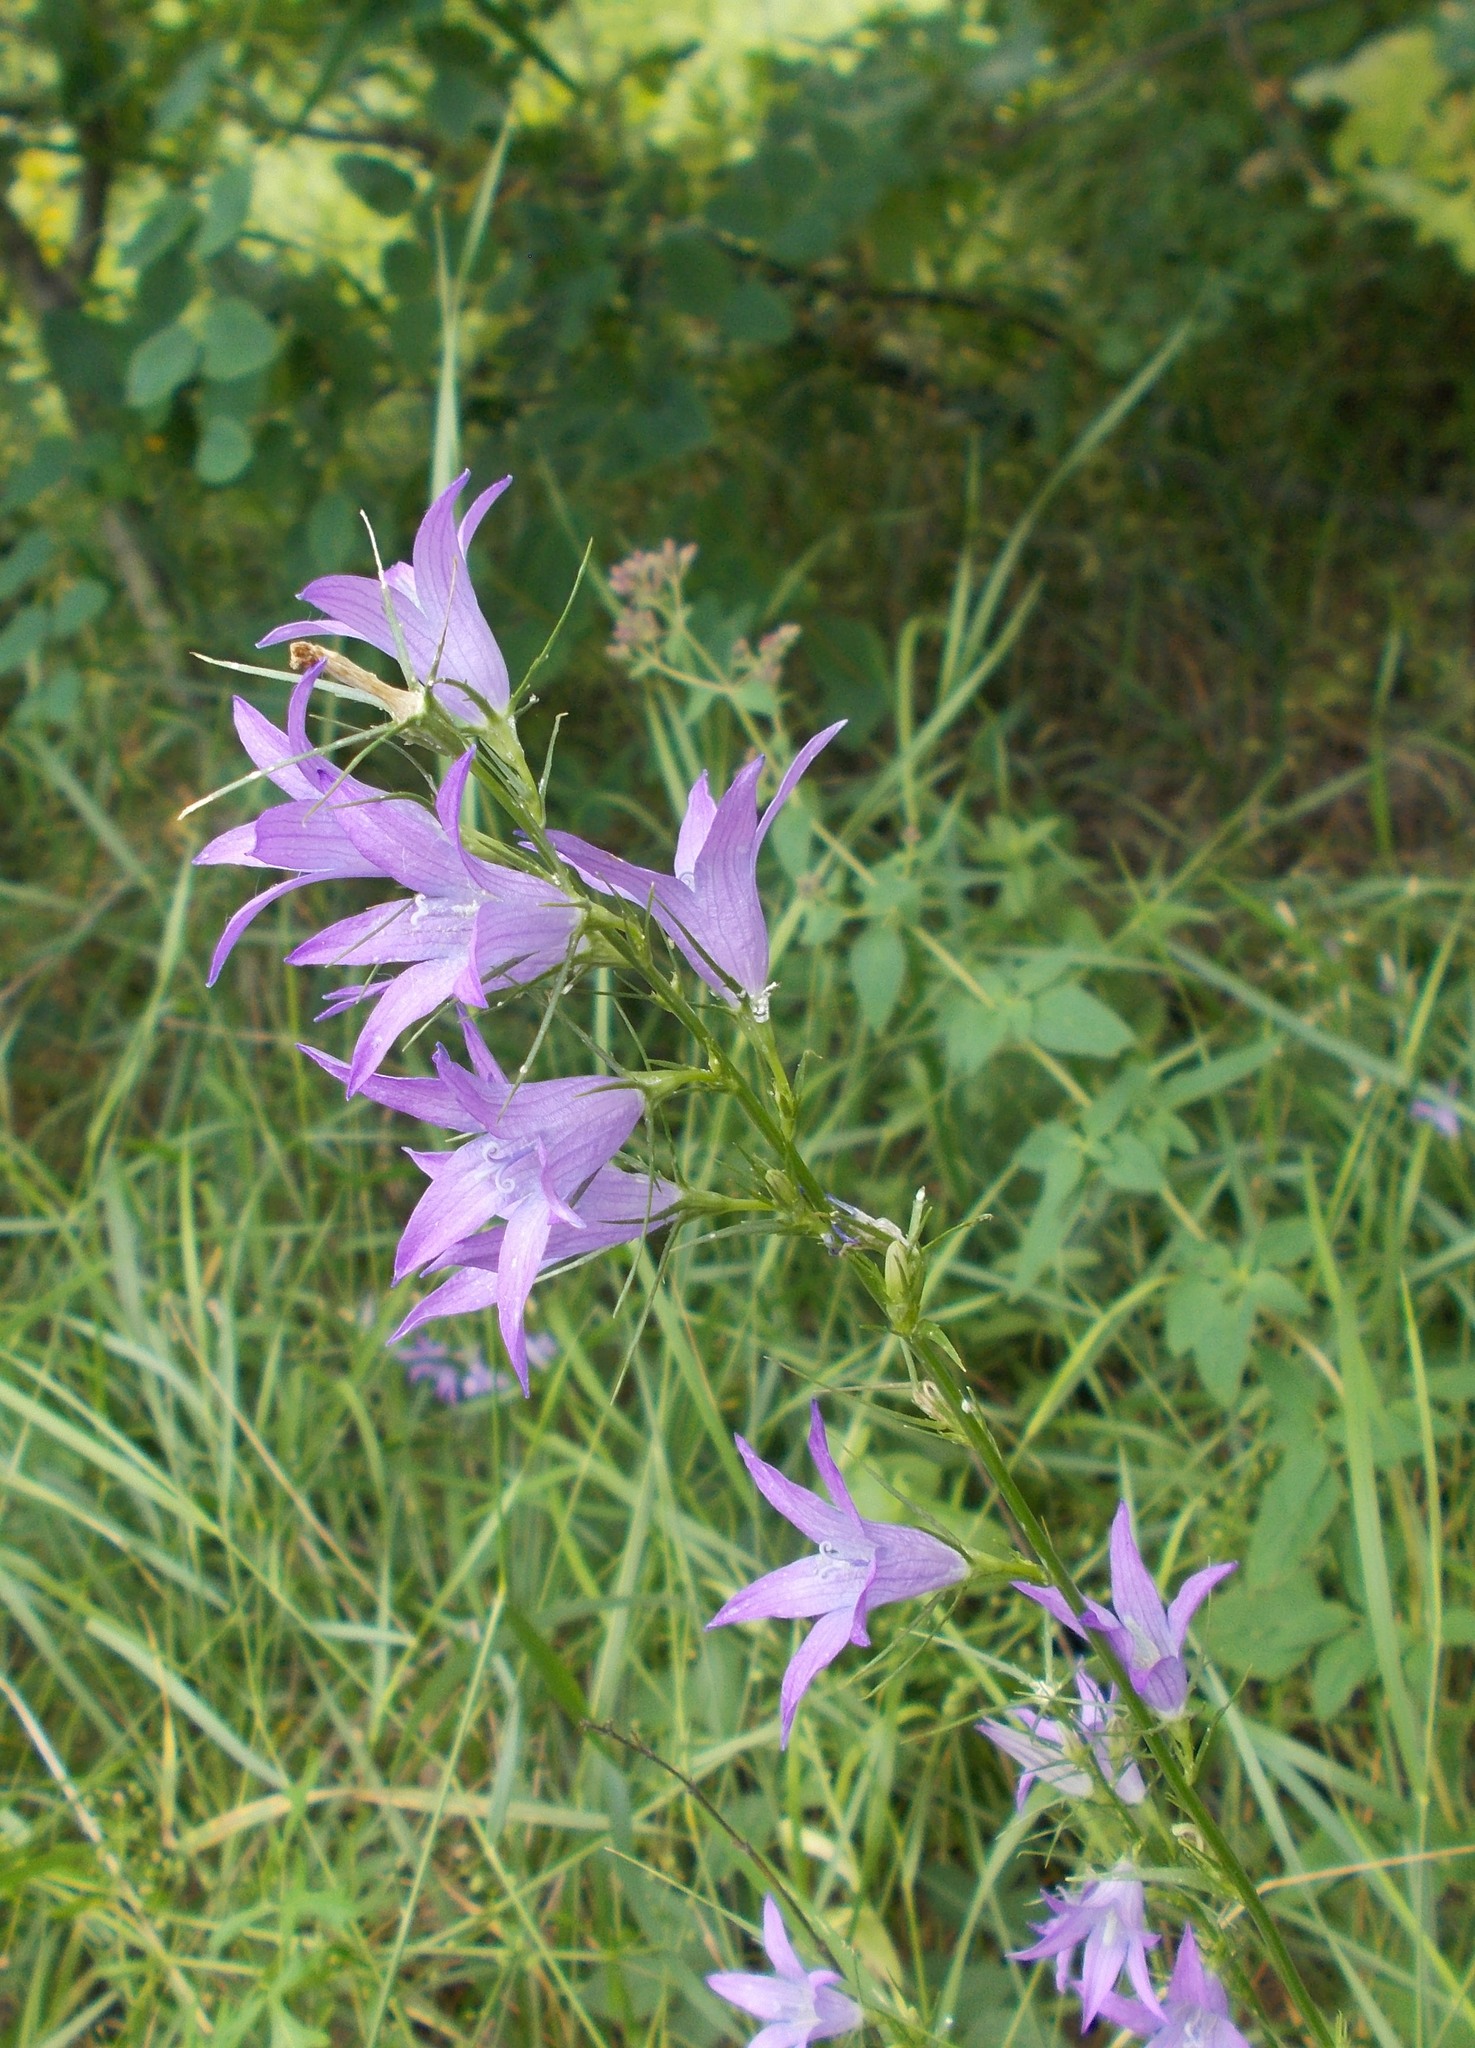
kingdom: Plantae
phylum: Tracheophyta
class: Magnoliopsida
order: Asterales
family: Campanulaceae
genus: Campanula
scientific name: Campanula rapunculus
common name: Rampion bellflower
